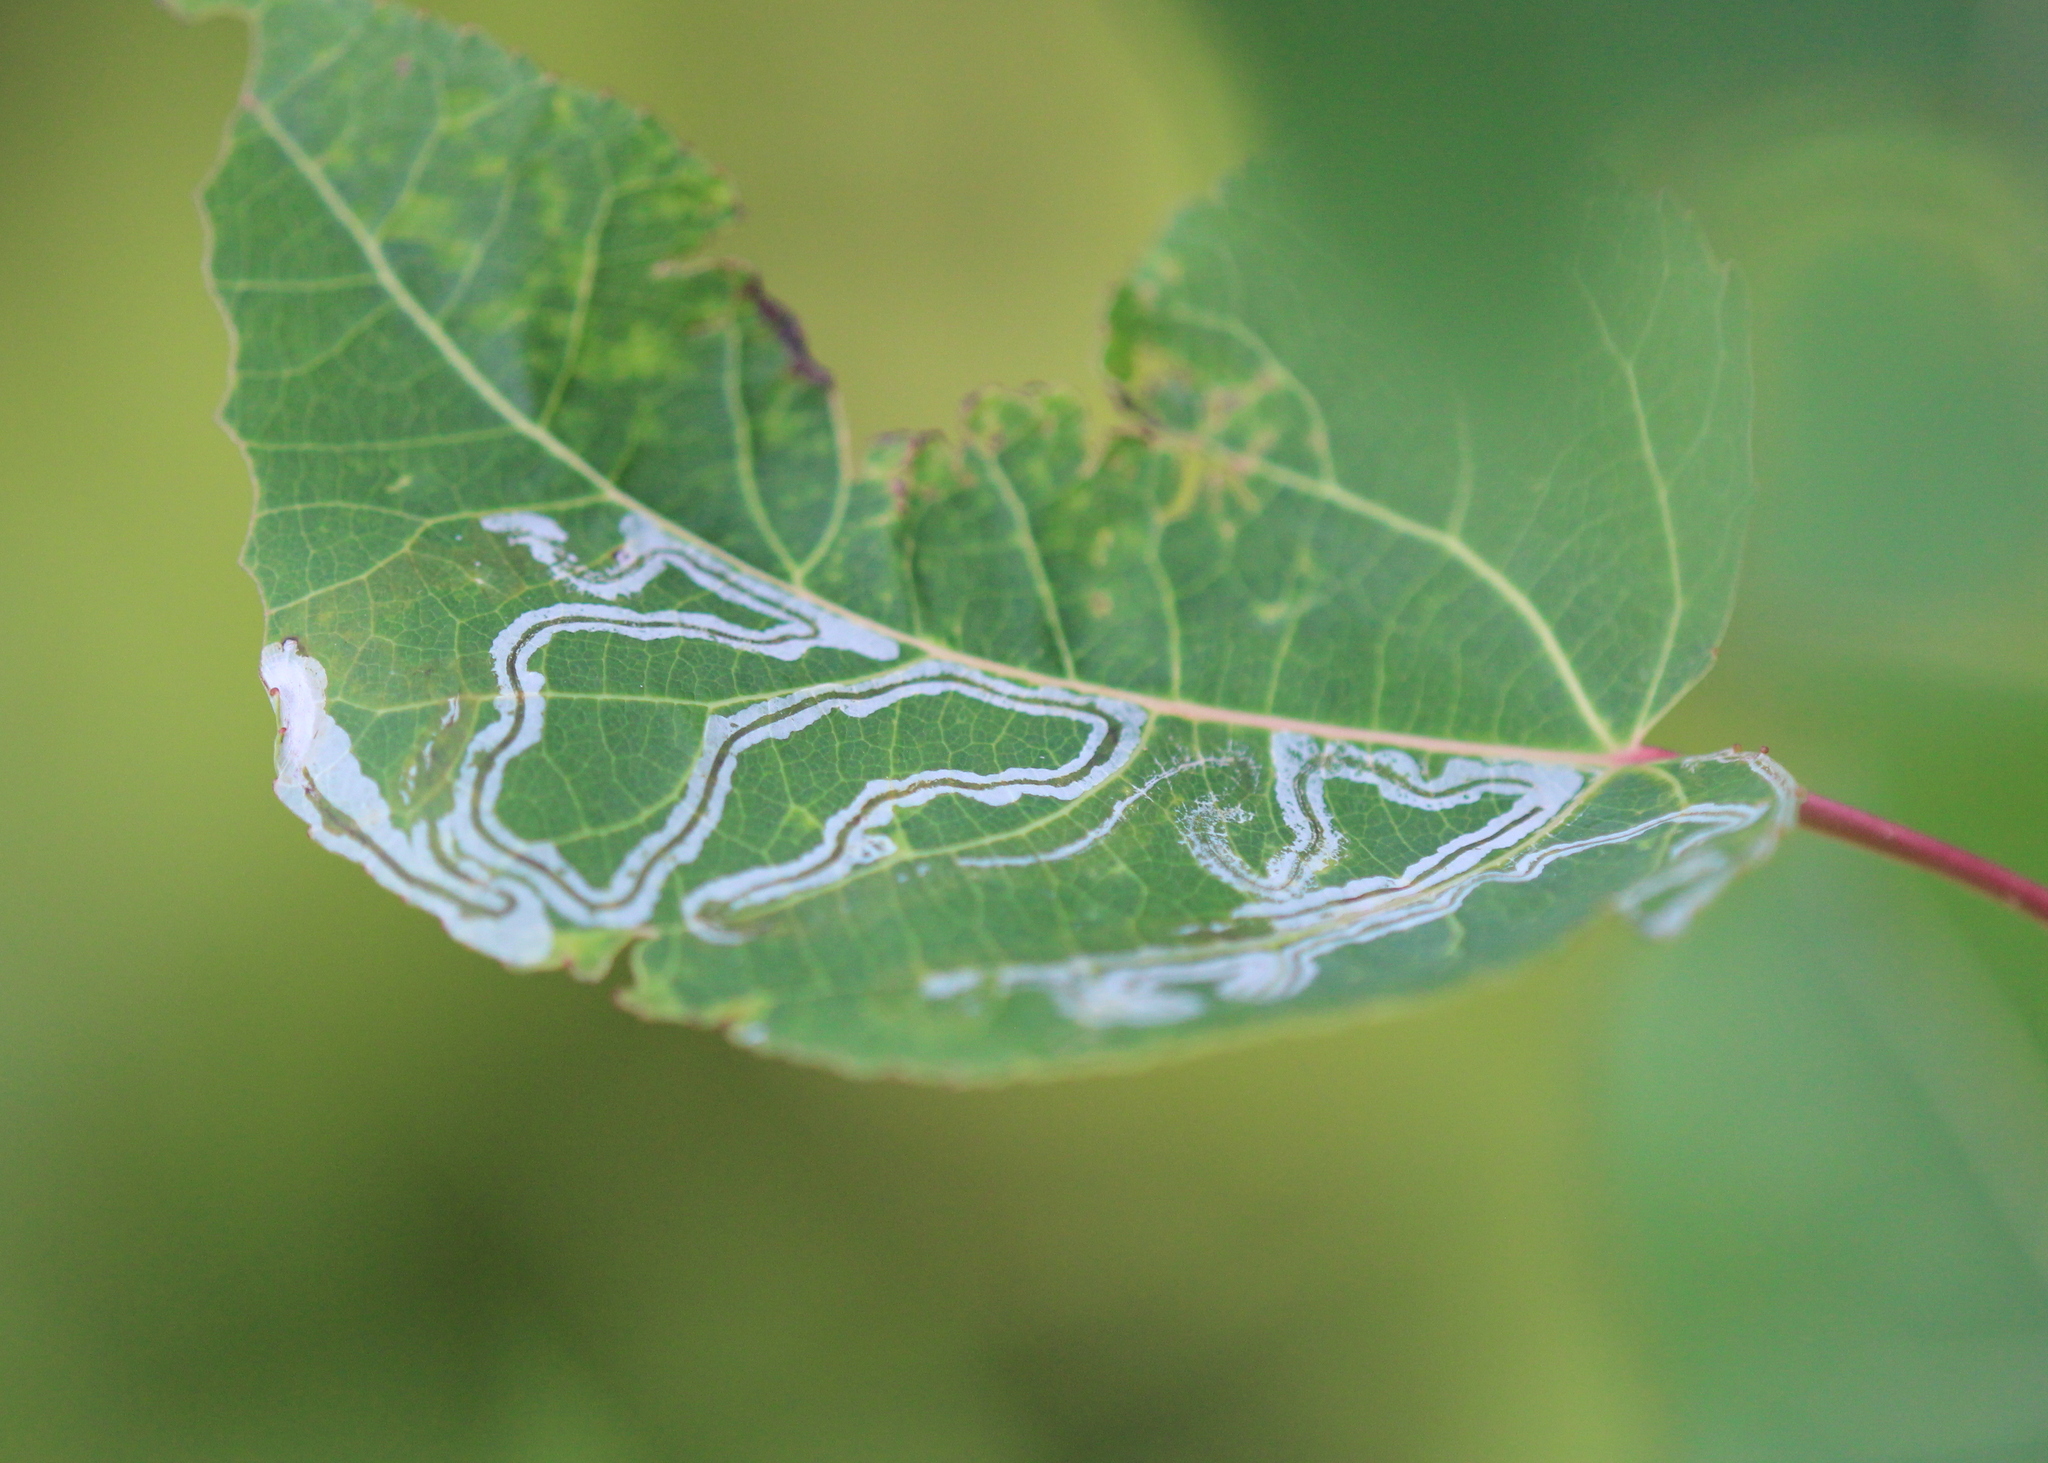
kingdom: Animalia
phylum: Arthropoda
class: Insecta
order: Lepidoptera
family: Gracillariidae
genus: Phyllocnistis
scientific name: Phyllocnistis populiella
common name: Aspen serpentine leafminer moth
